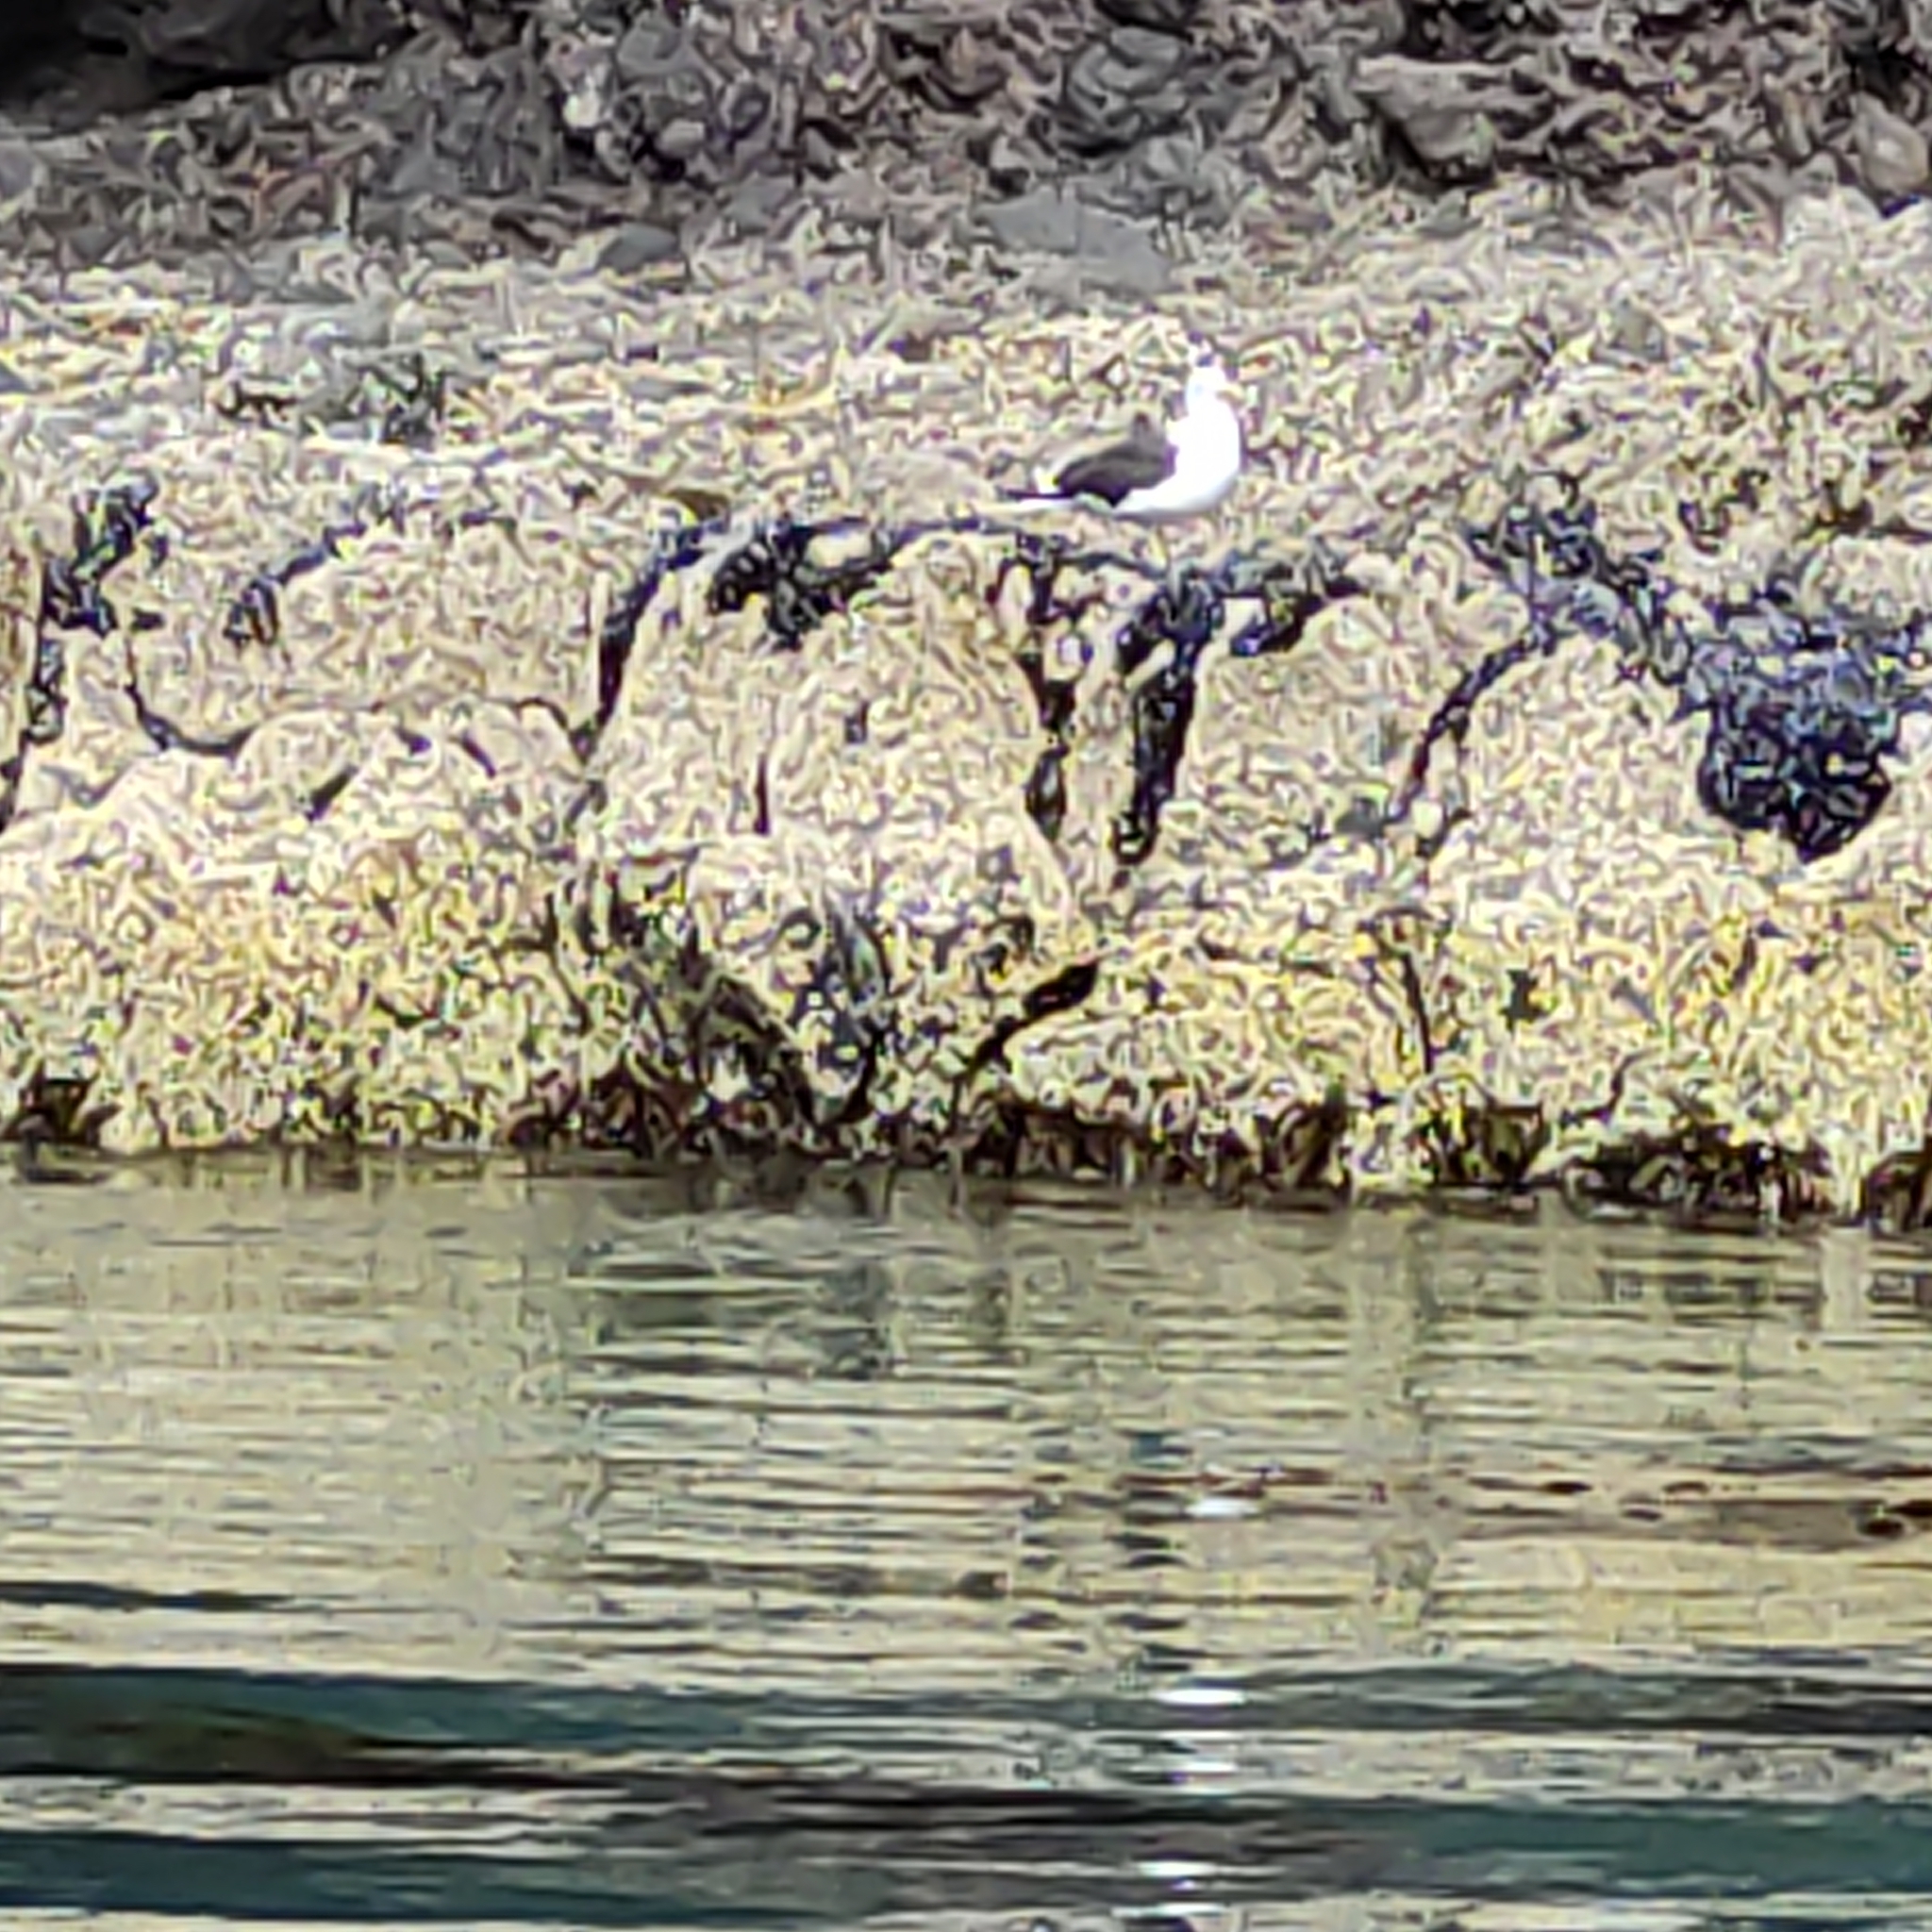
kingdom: Animalia
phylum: Chordata
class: Aves
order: Charadriiformes
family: Laridae
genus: Larus
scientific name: Larus dominicanus
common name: Kelp gull
